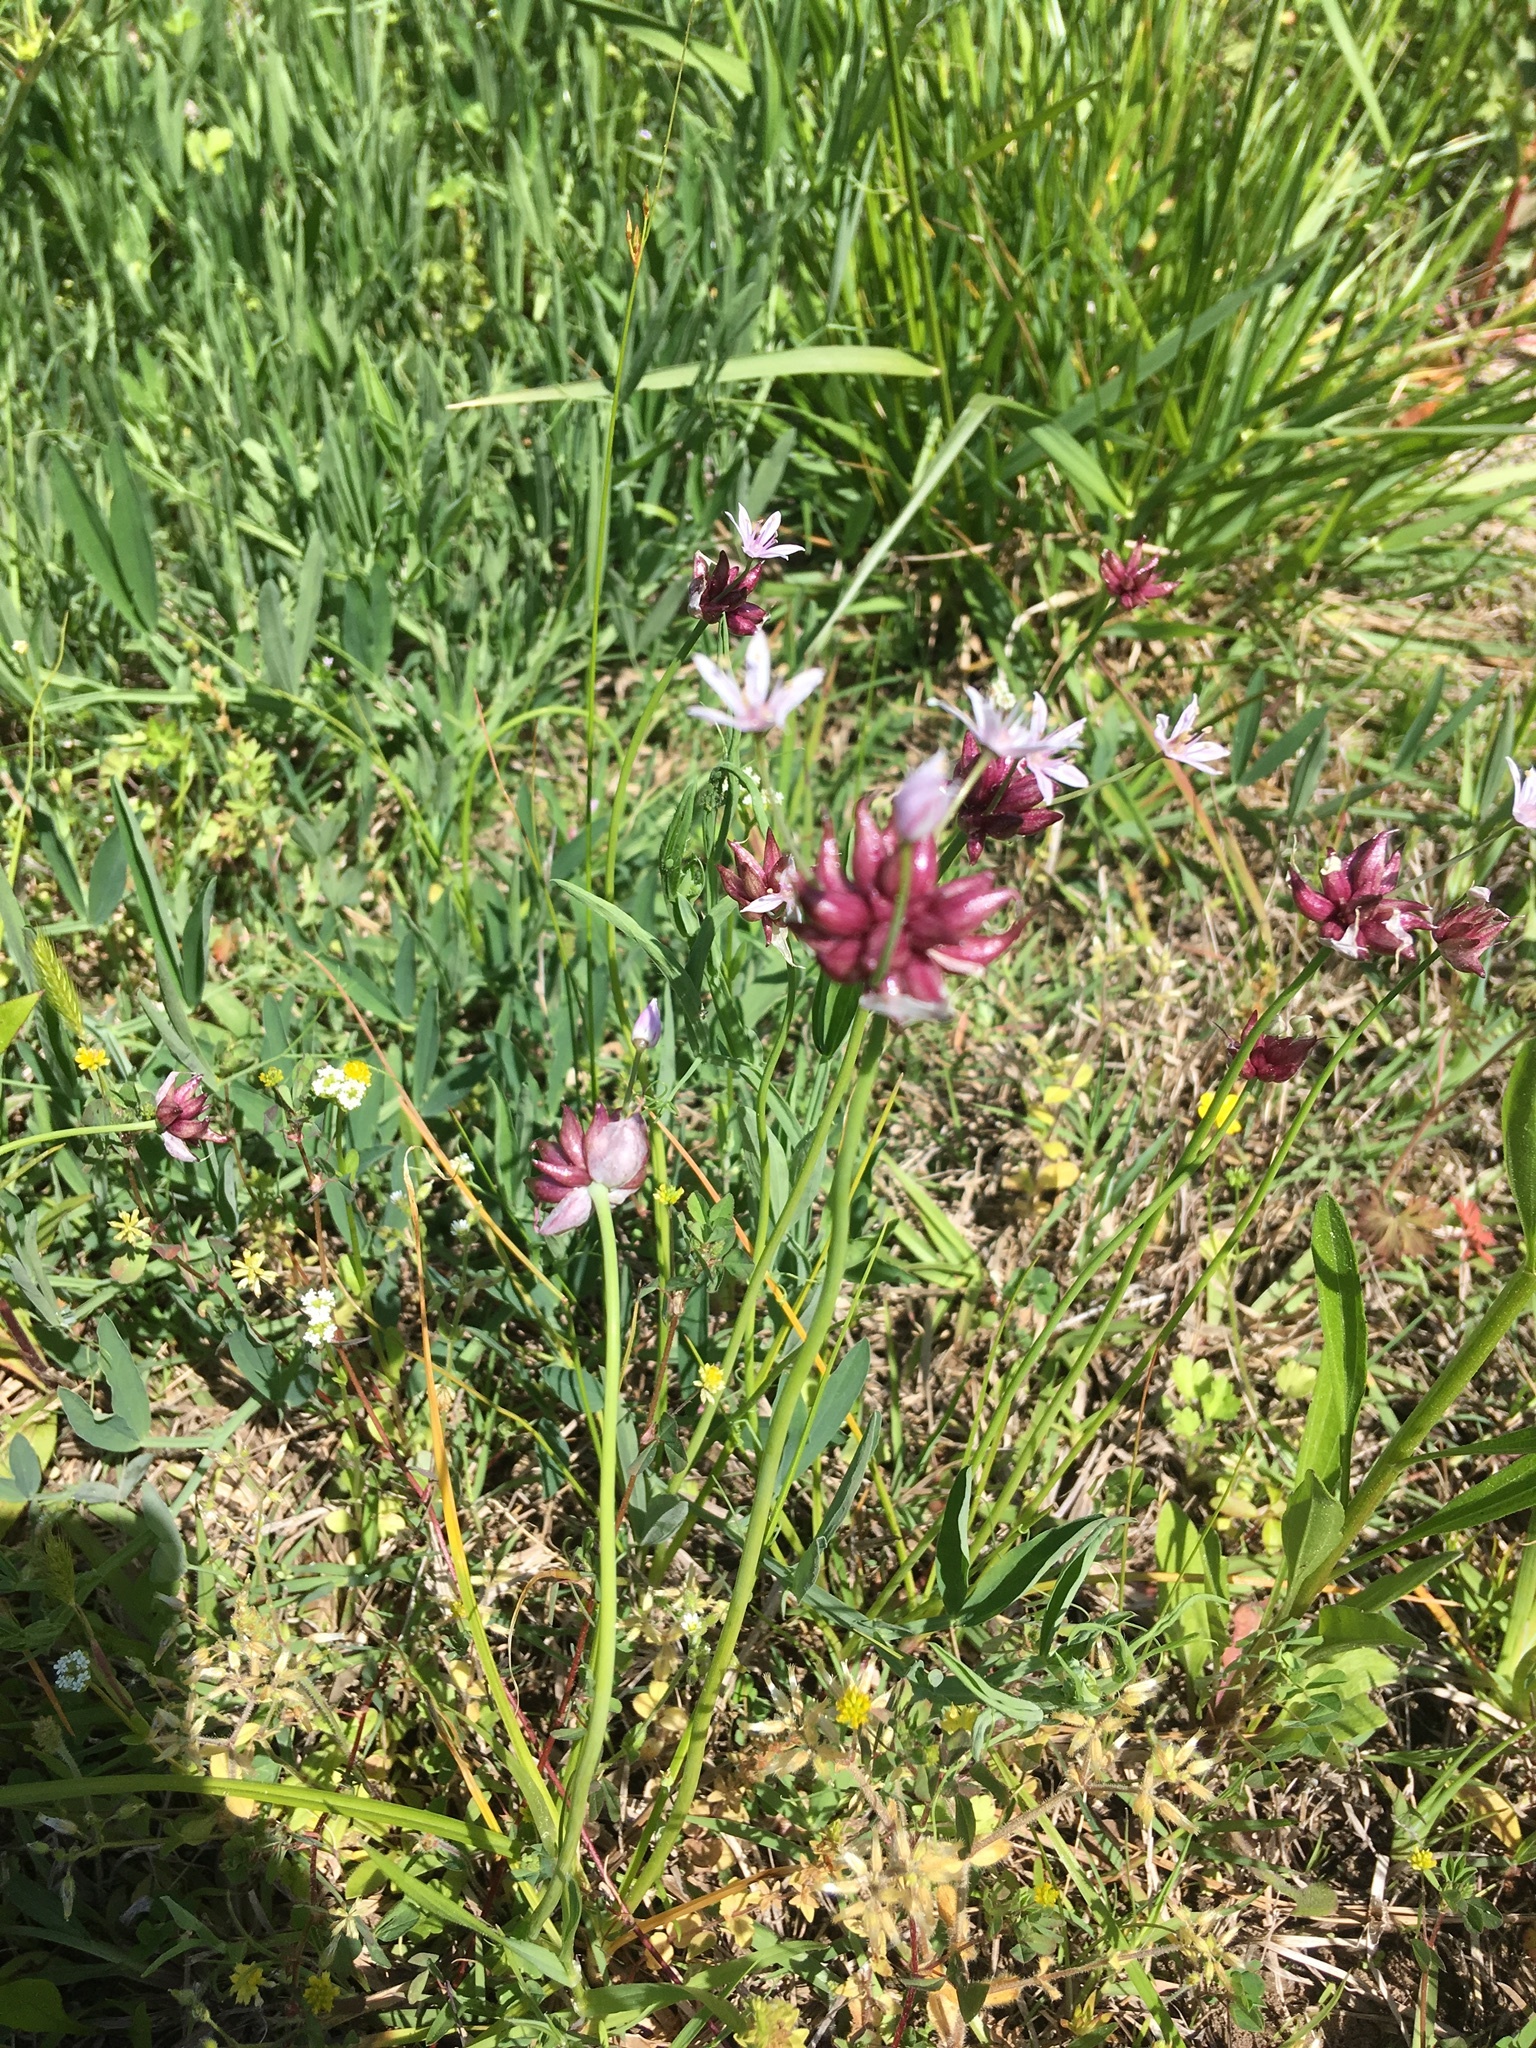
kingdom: Plantae
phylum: Tracheophyta
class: Liliopsida
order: Asparagales
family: Amaryllidaceae
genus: Allium
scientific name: Allium canadense
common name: Meadow garlic
